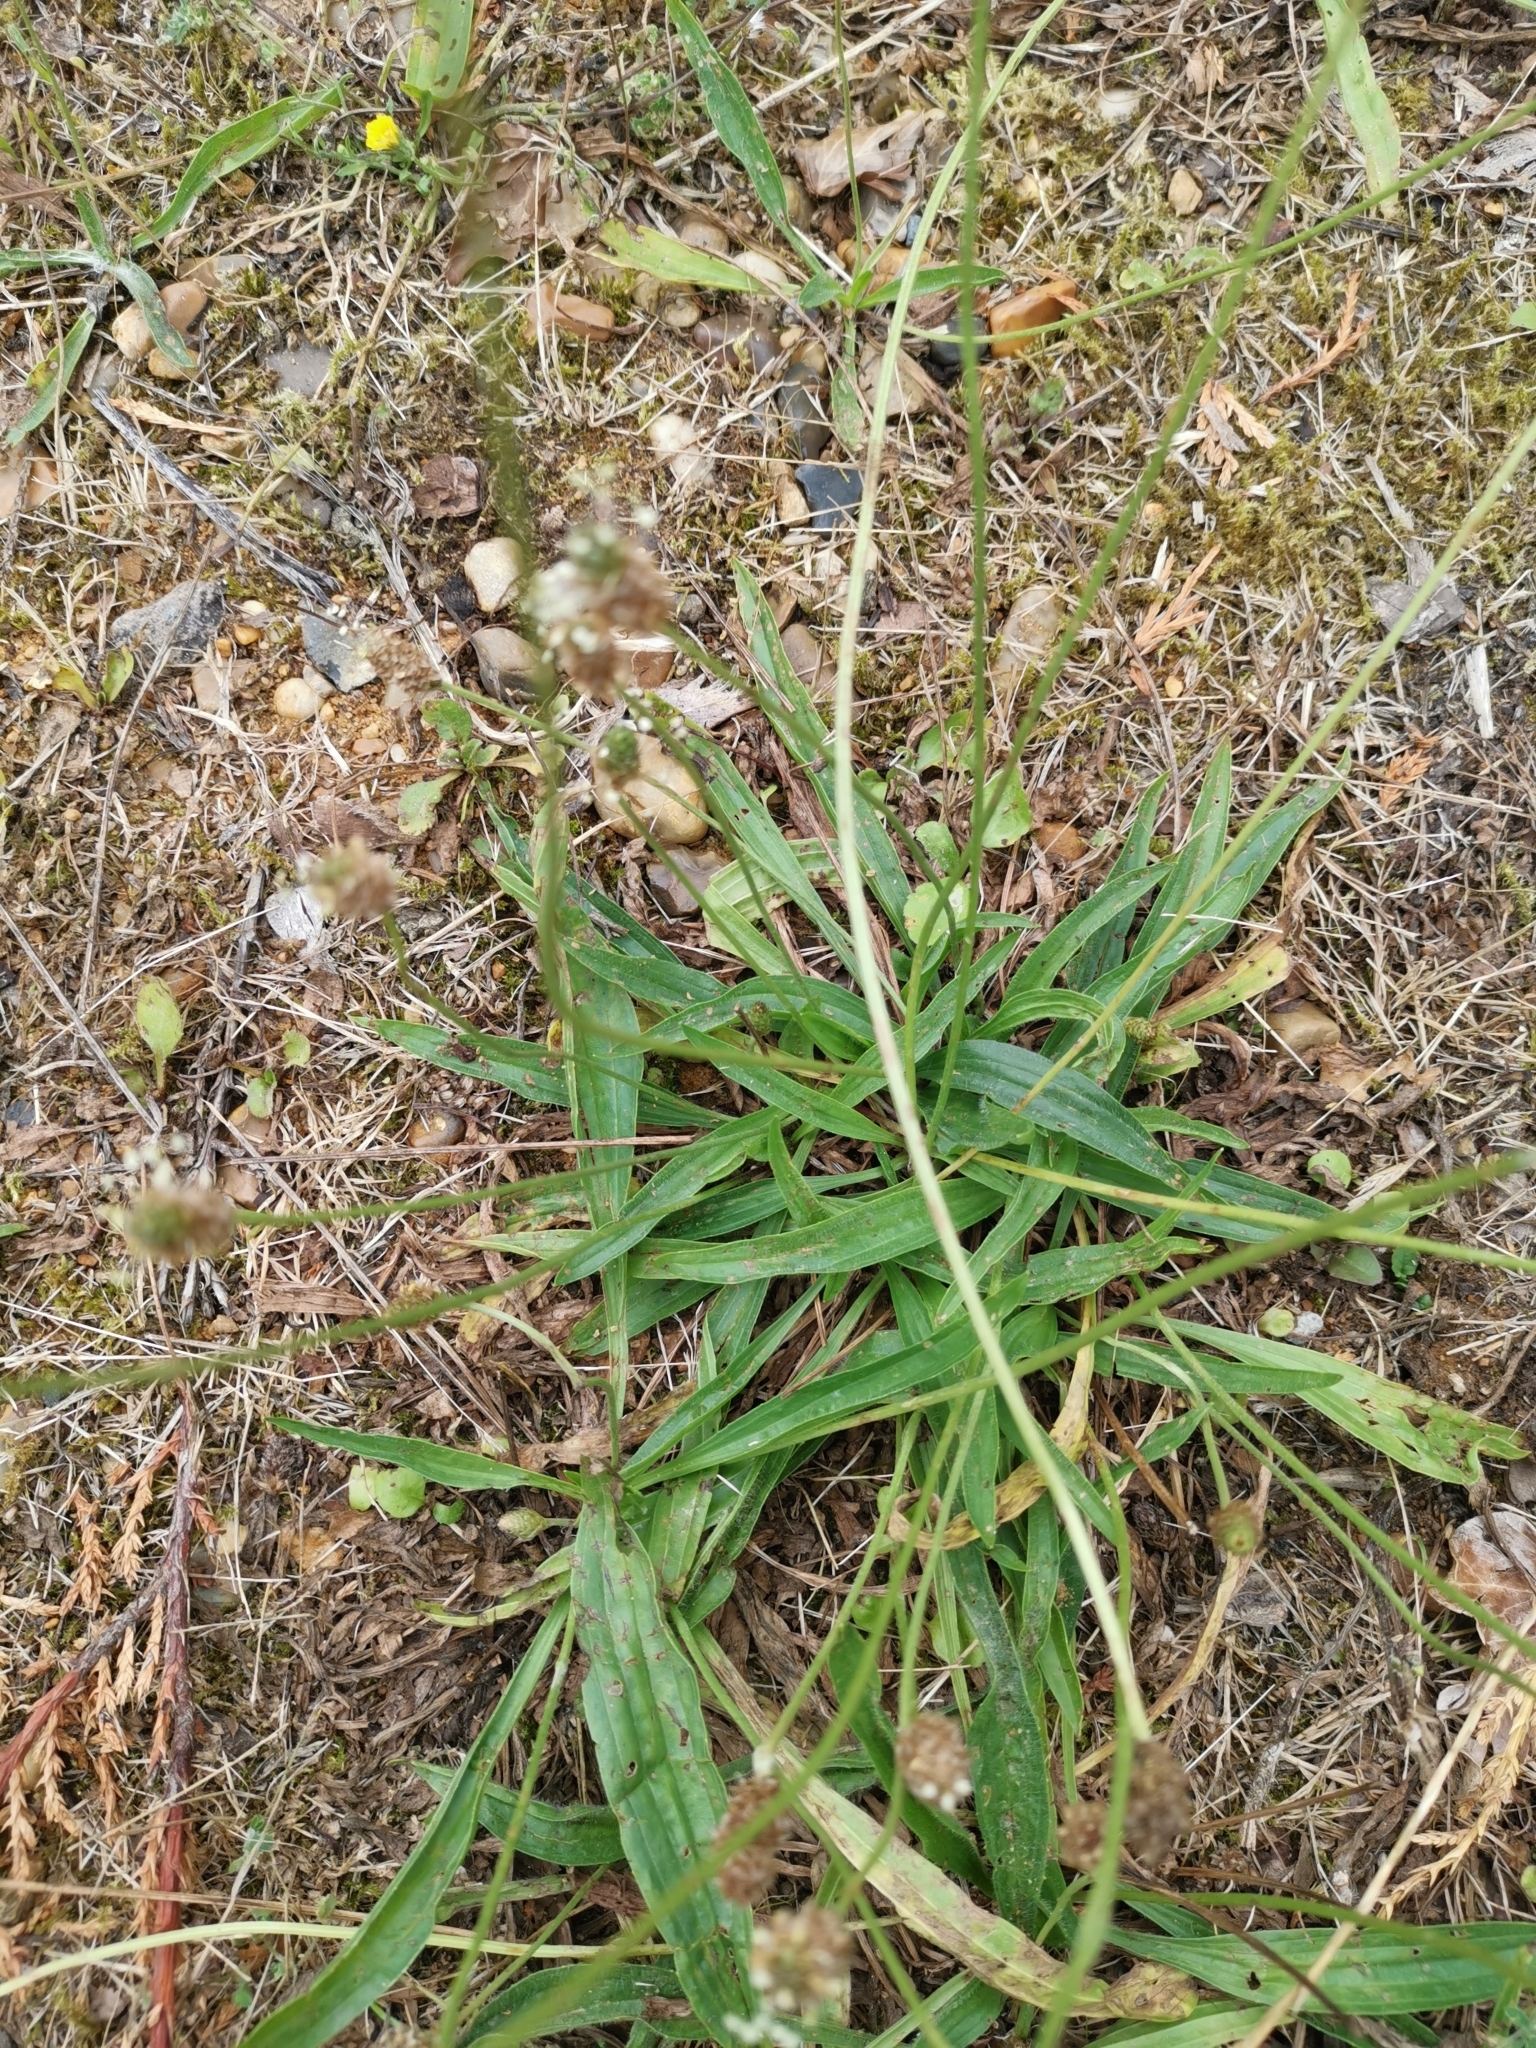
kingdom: Plantae
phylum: Tracheophyta
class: Magnoliopsida
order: Lamiales
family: Plantaginaceae
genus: Plantago
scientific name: Plantago lanceolata
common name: Ribwort plantain
